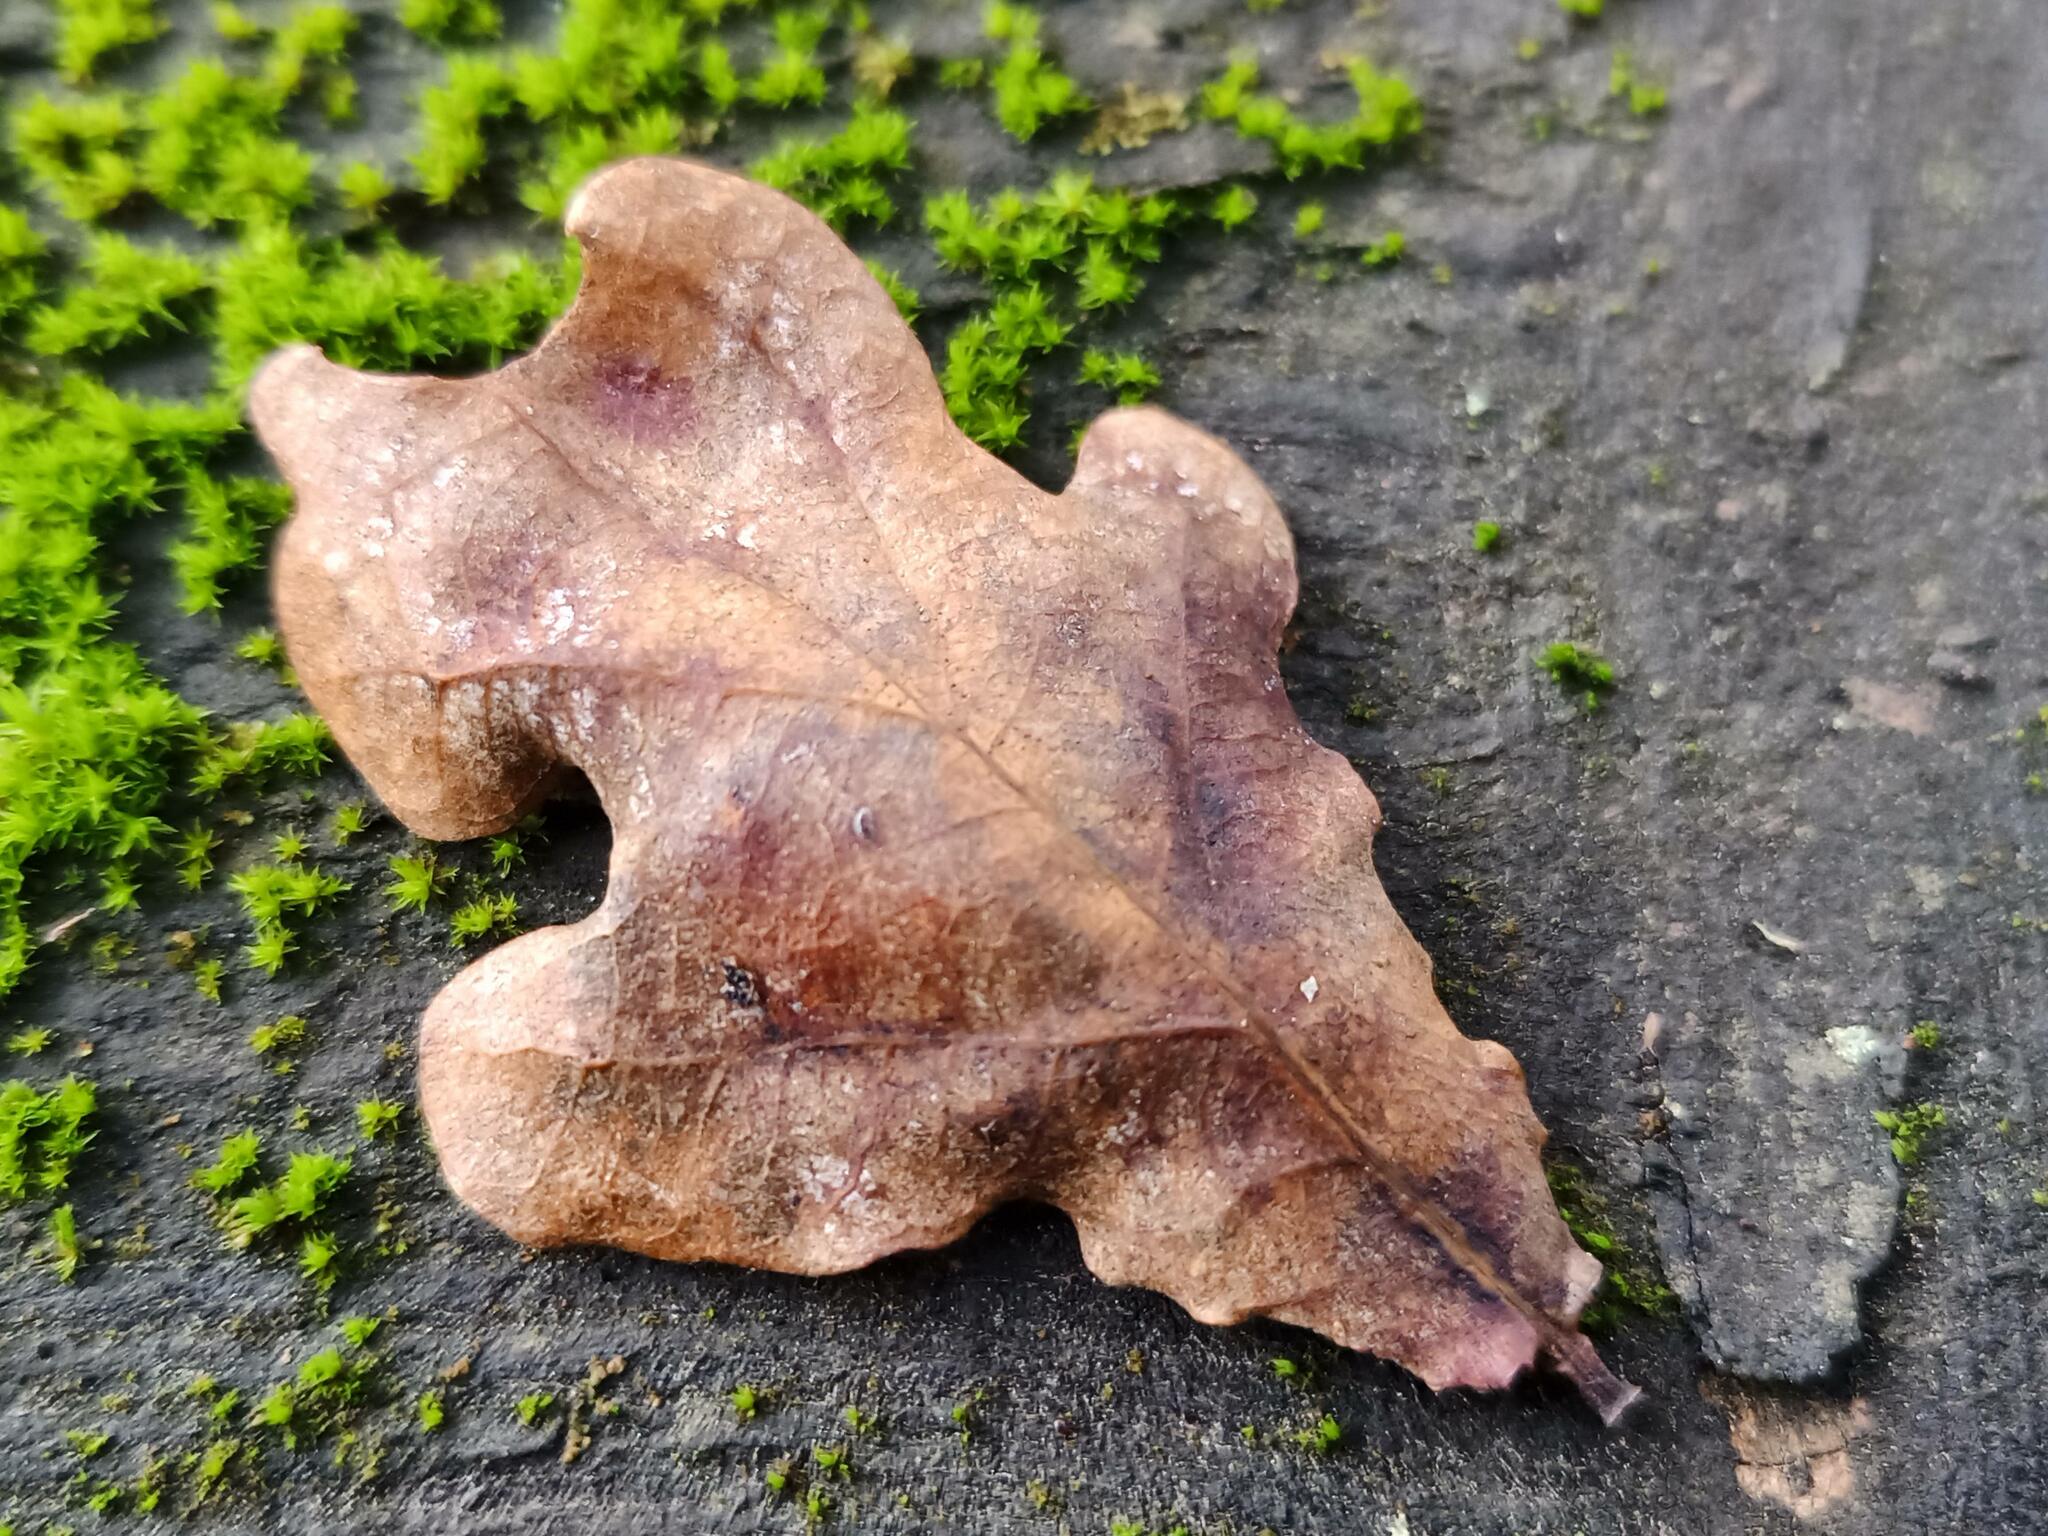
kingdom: Animalia
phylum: Arthropoda
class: Insecta
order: Hymenoptera
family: Cynipidae
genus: Neuroterus
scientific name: Neuroterus numismalis
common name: Silk-button spangle gall
